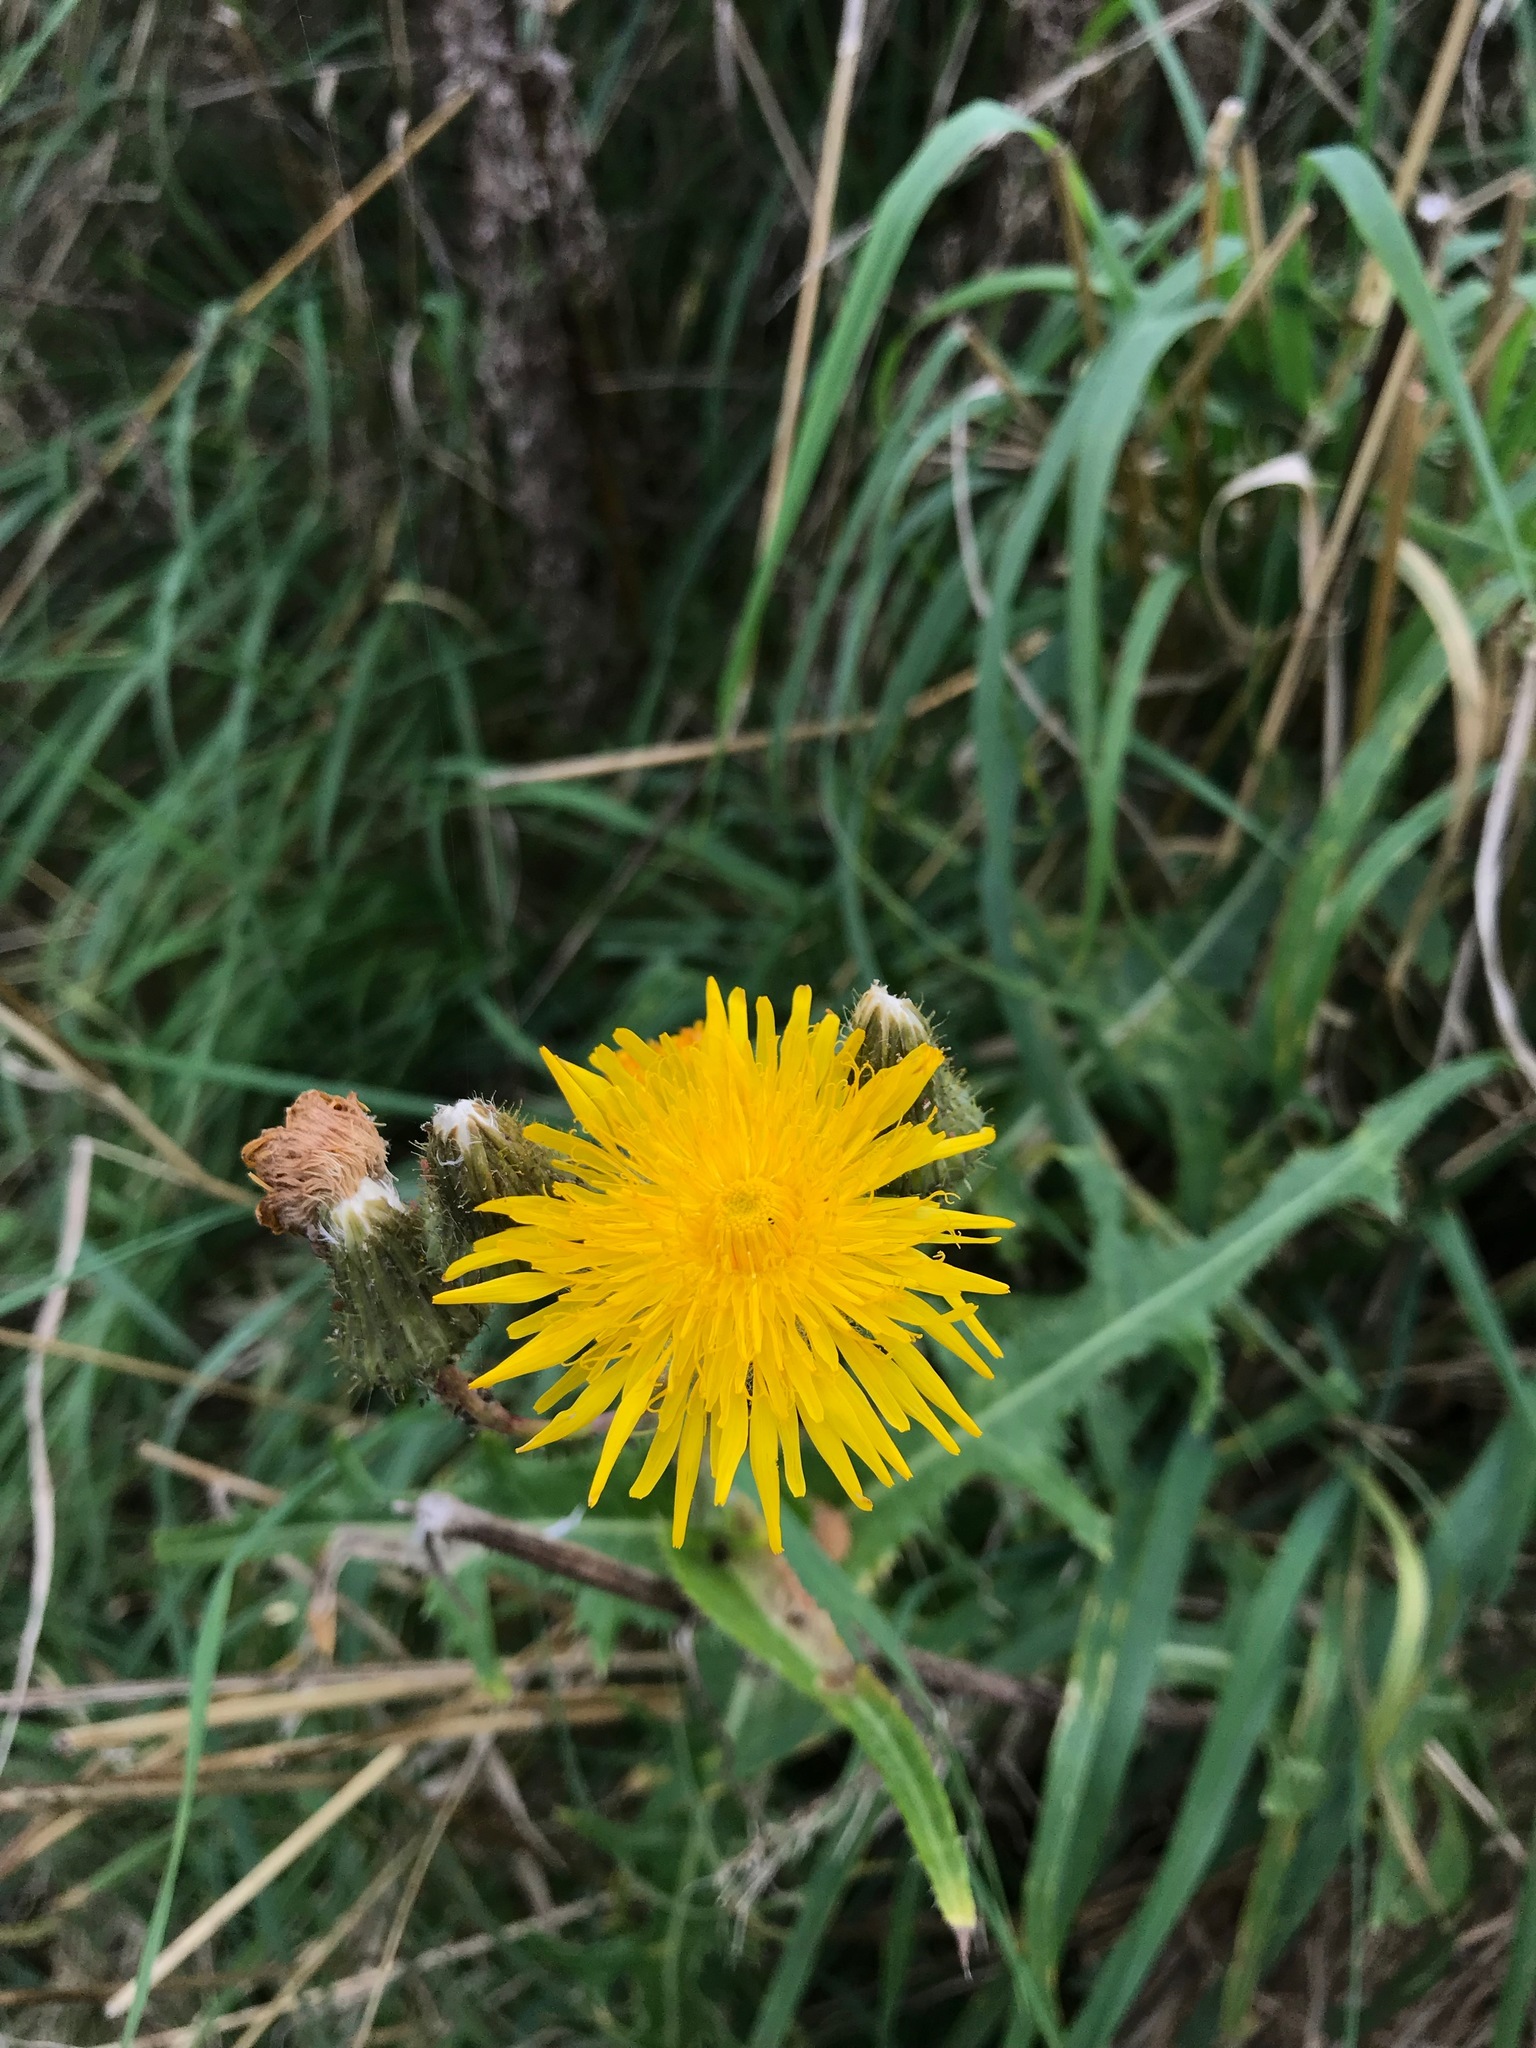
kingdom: Plantae
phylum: Tracheophyta
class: Magnoliopsida
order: Asterales
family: Asteraceae
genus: Sonchus
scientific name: Sonchus arvensis
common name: Perennial sow-thistle
